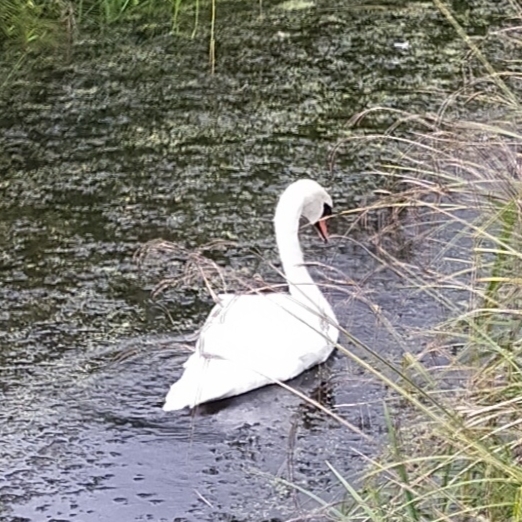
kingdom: Animalia
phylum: Chordata
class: Aves
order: Anseriformes
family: Anatidae
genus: Cygnus
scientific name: Cygnus olor
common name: Mute swan
